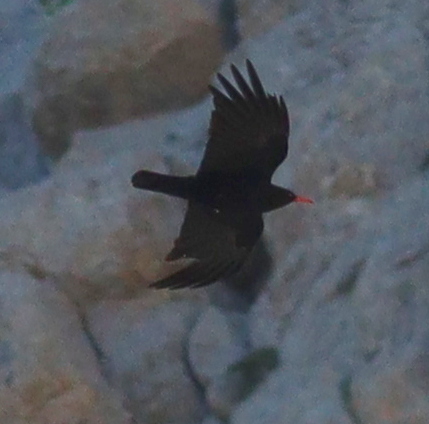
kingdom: Animalia
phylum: Chordata
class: Aves
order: Passeriformes
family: Corvidae
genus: Pyrrhocorax
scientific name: Pyrrhocorax pyrrhocorax
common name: Red-billed chough
